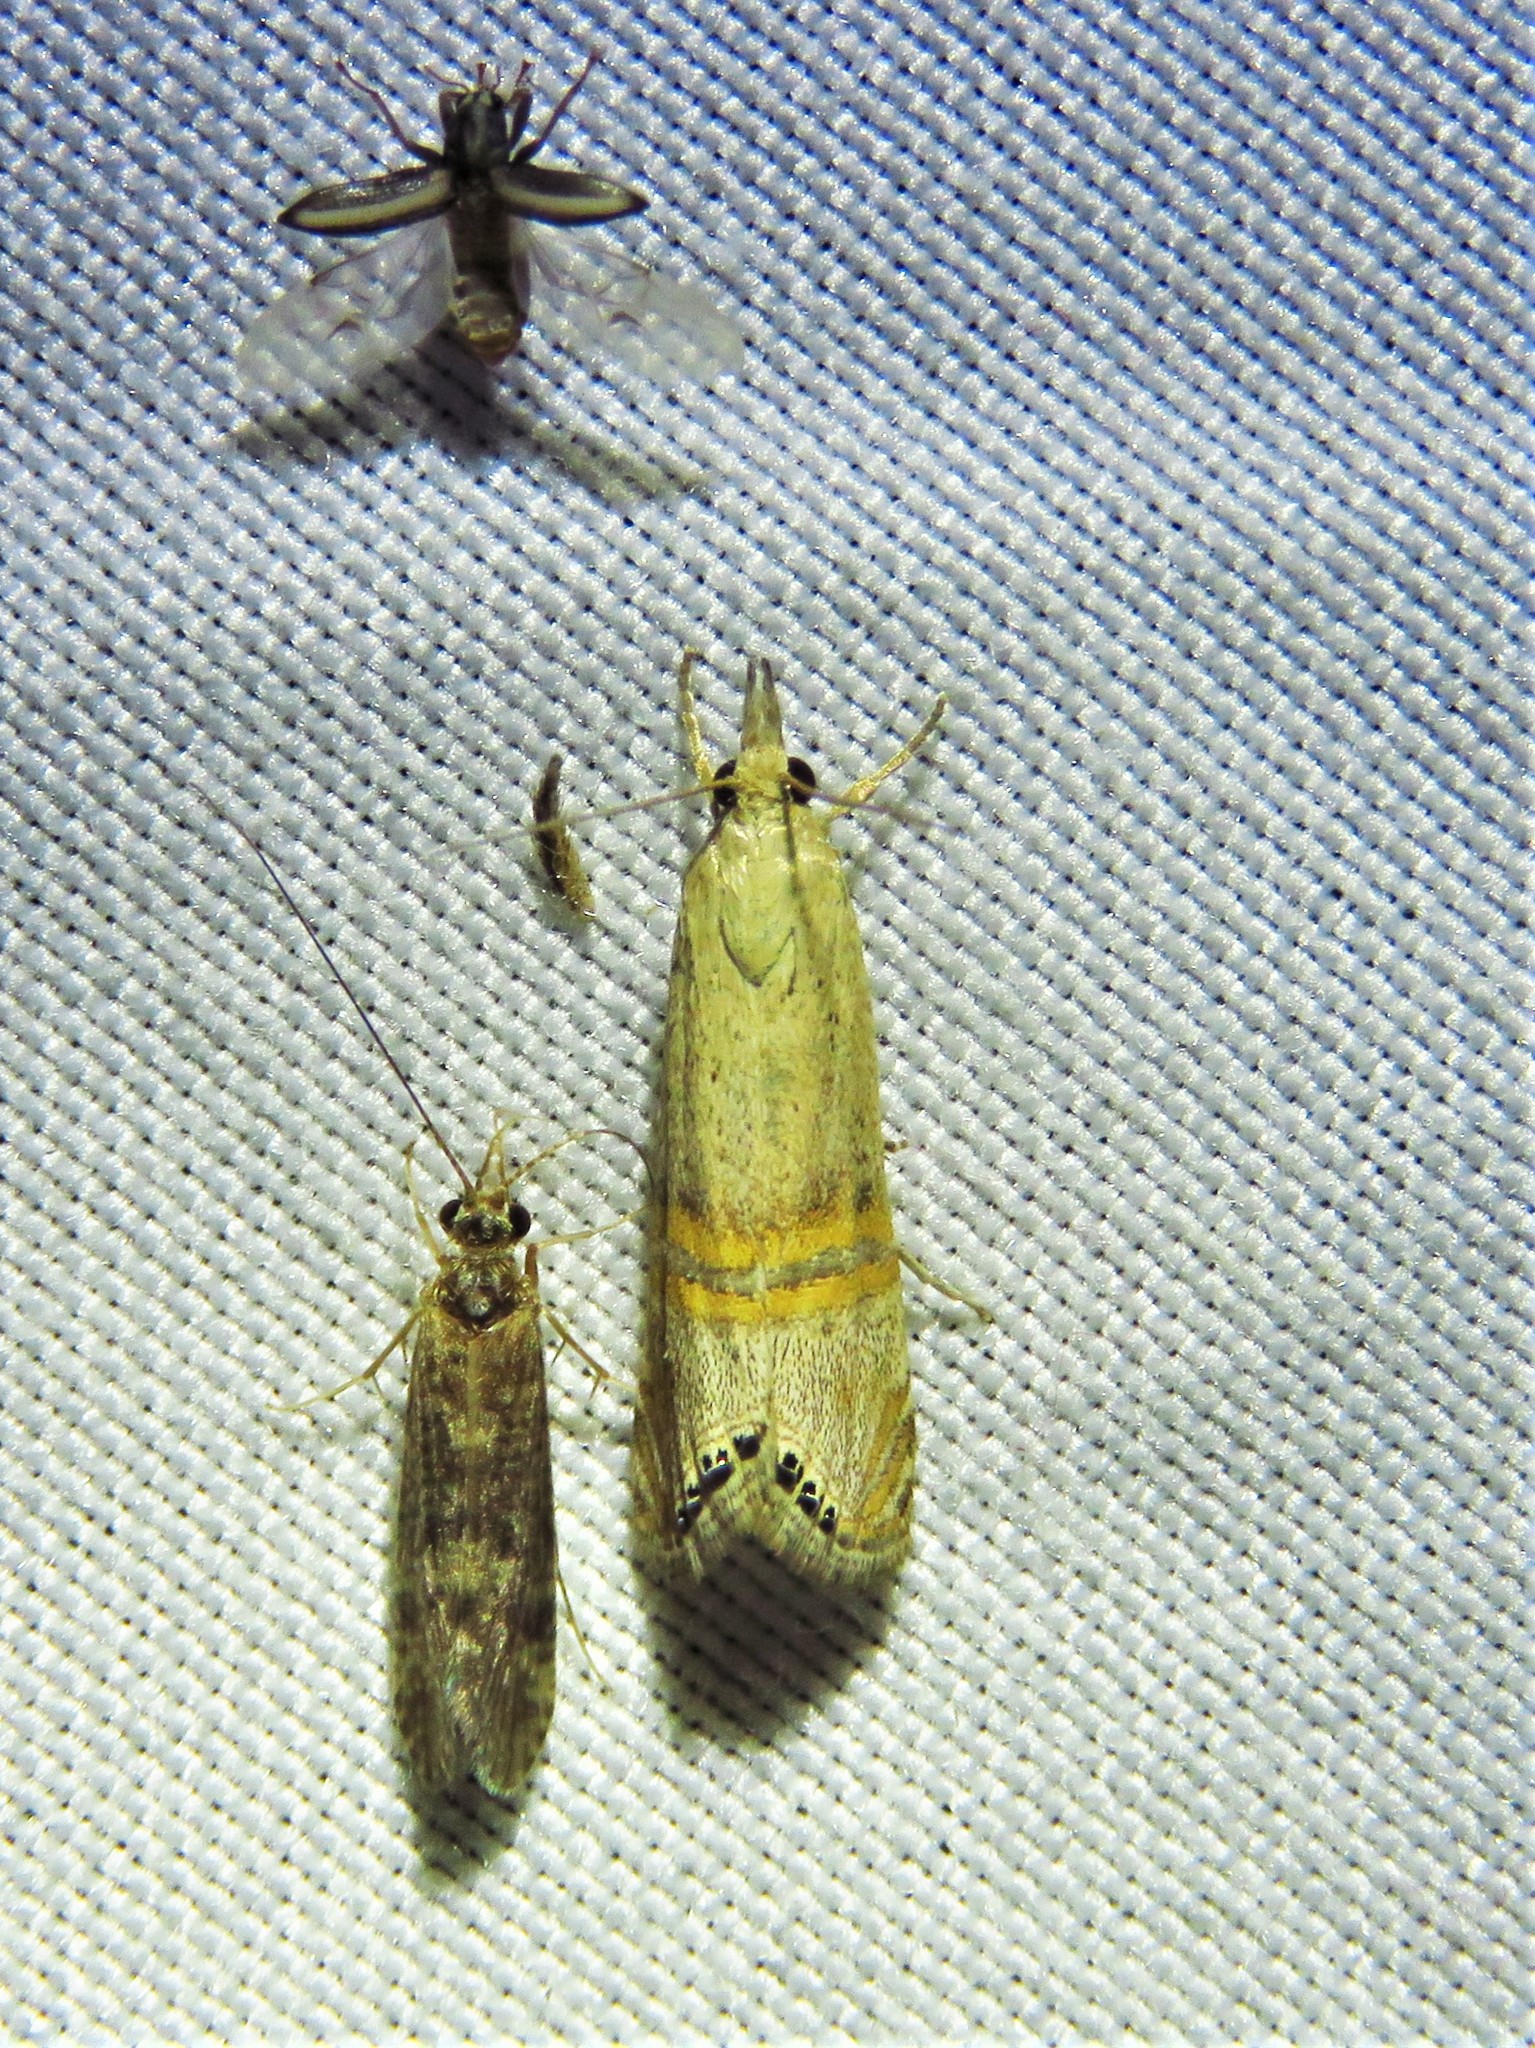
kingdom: Animalia
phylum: Arthropoda
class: Insecta
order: Lepidoptera
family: Crambidae
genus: Euchromius
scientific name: Euchromius ocellea
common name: Necklace veneer moth
